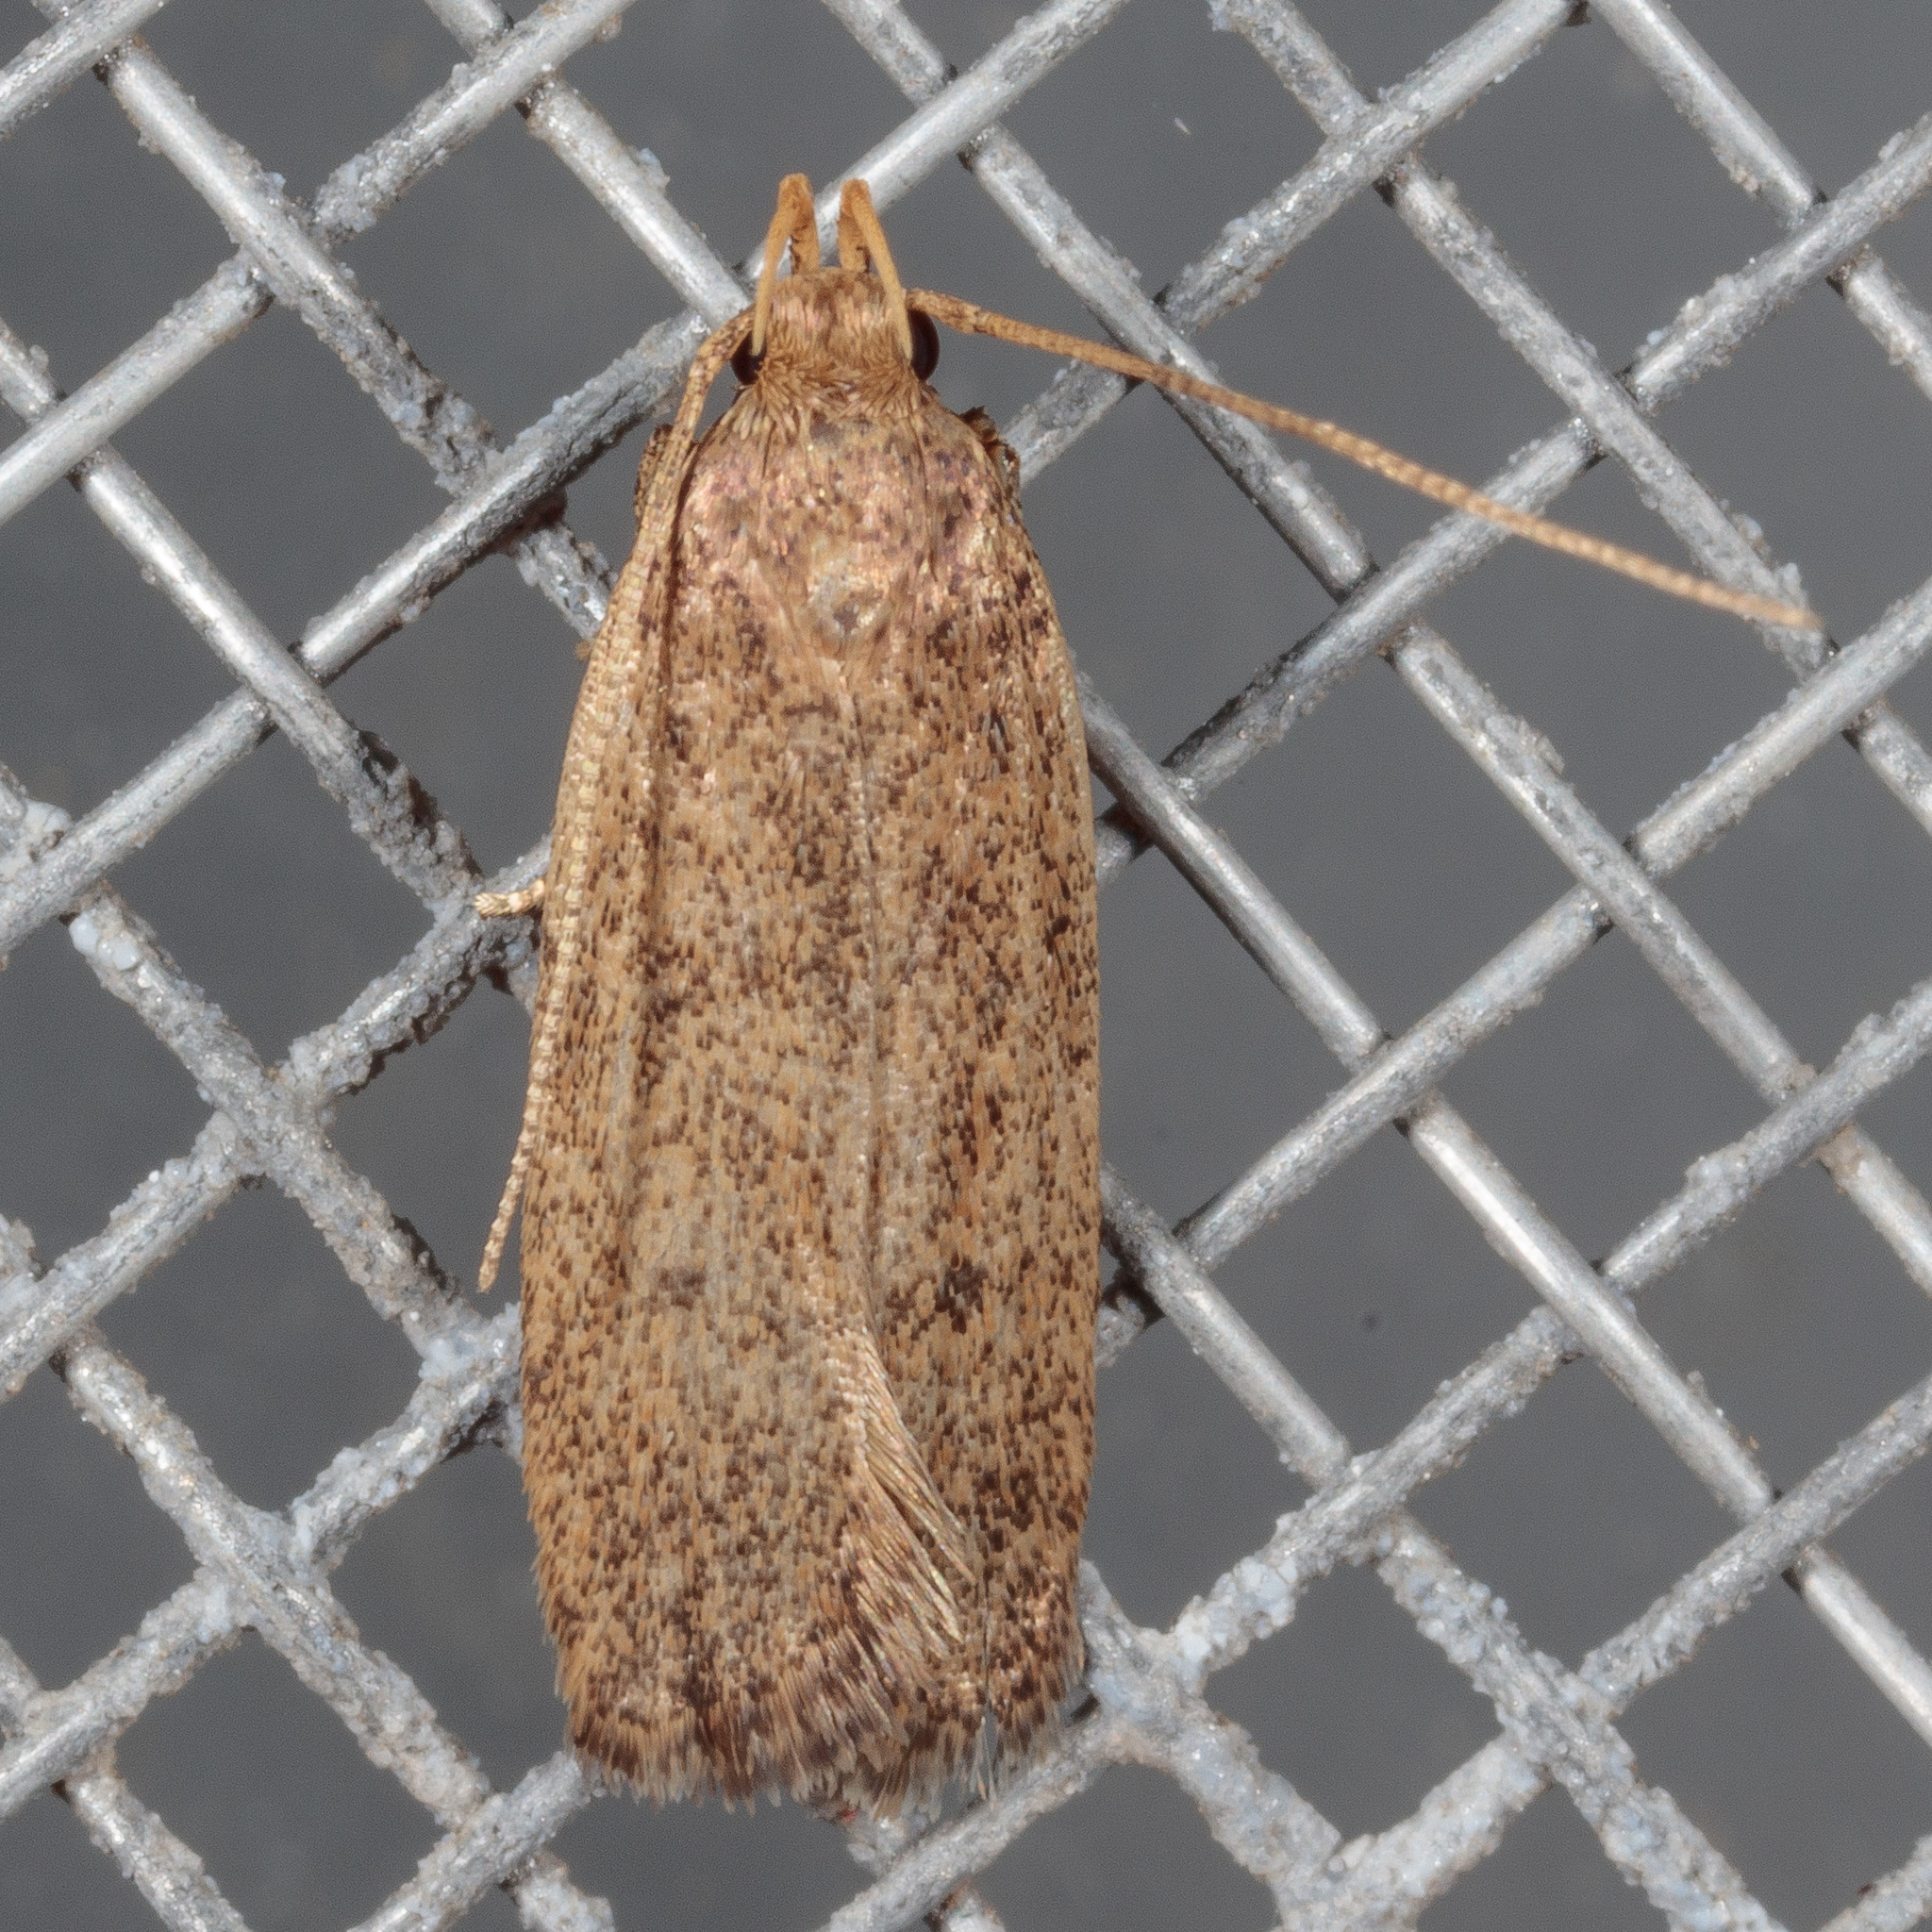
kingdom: Animalia
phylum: Arthropoda
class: Insecta
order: Lepidoptera
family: Autostichidae
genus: Glyphidocera
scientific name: Glyphidocera juniperella
